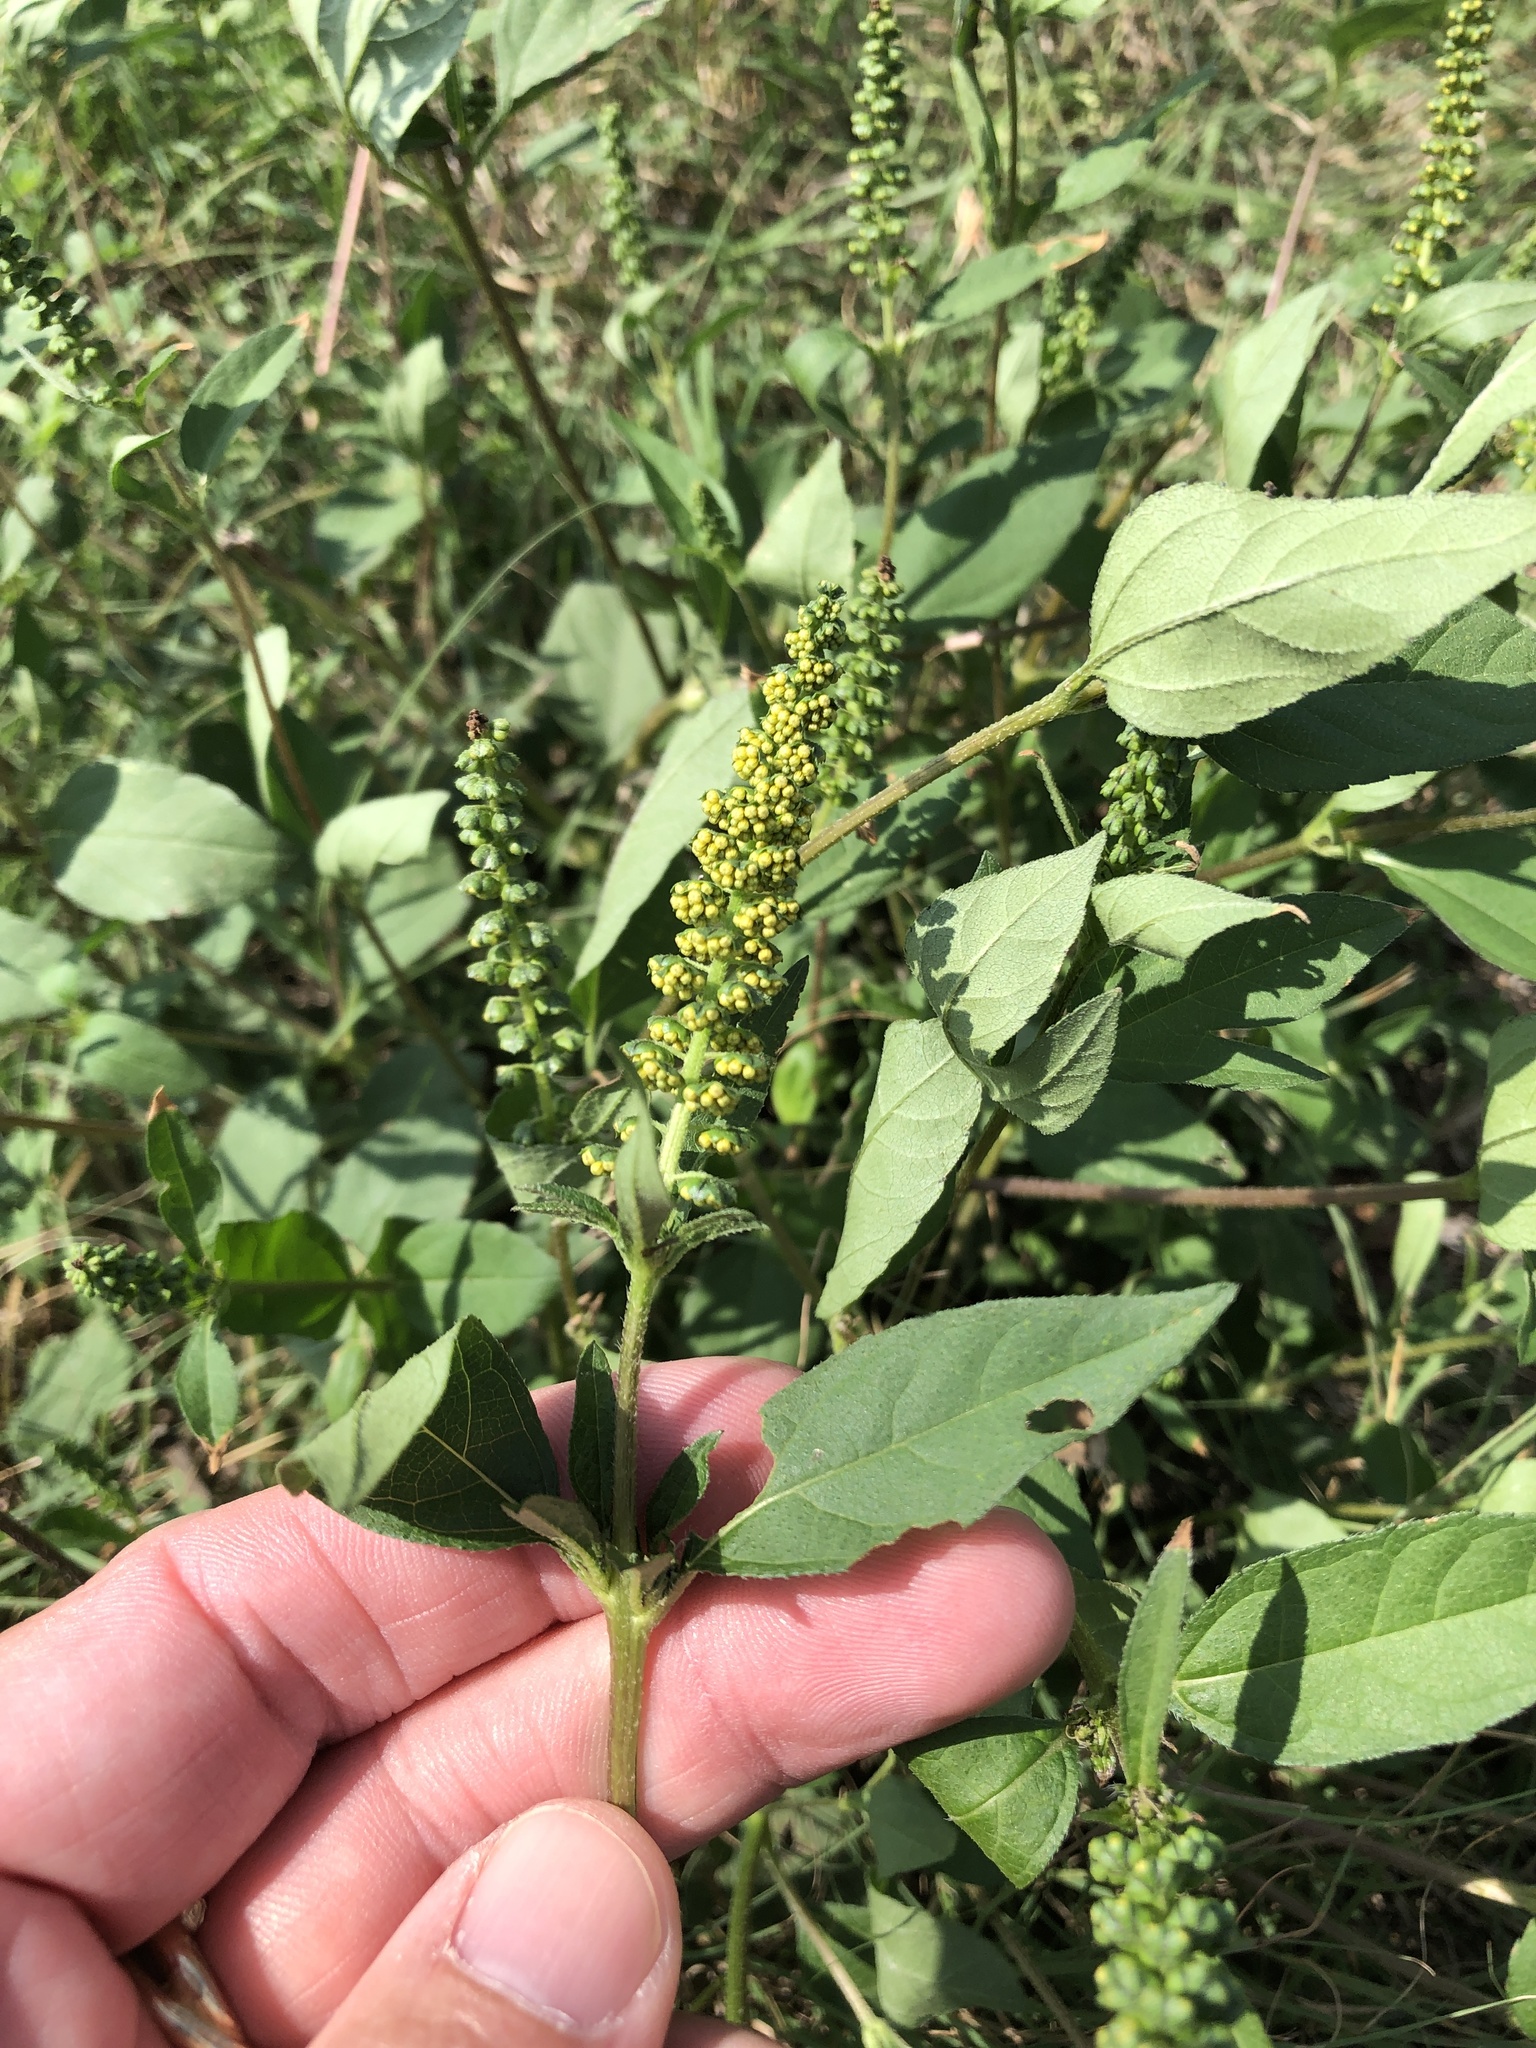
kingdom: Plantae
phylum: Tracheophyta
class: Magnoliopsida
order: Asterales
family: Asteraceae
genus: Ambrosia
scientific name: Ambrosia trifida
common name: Giant ragweed
